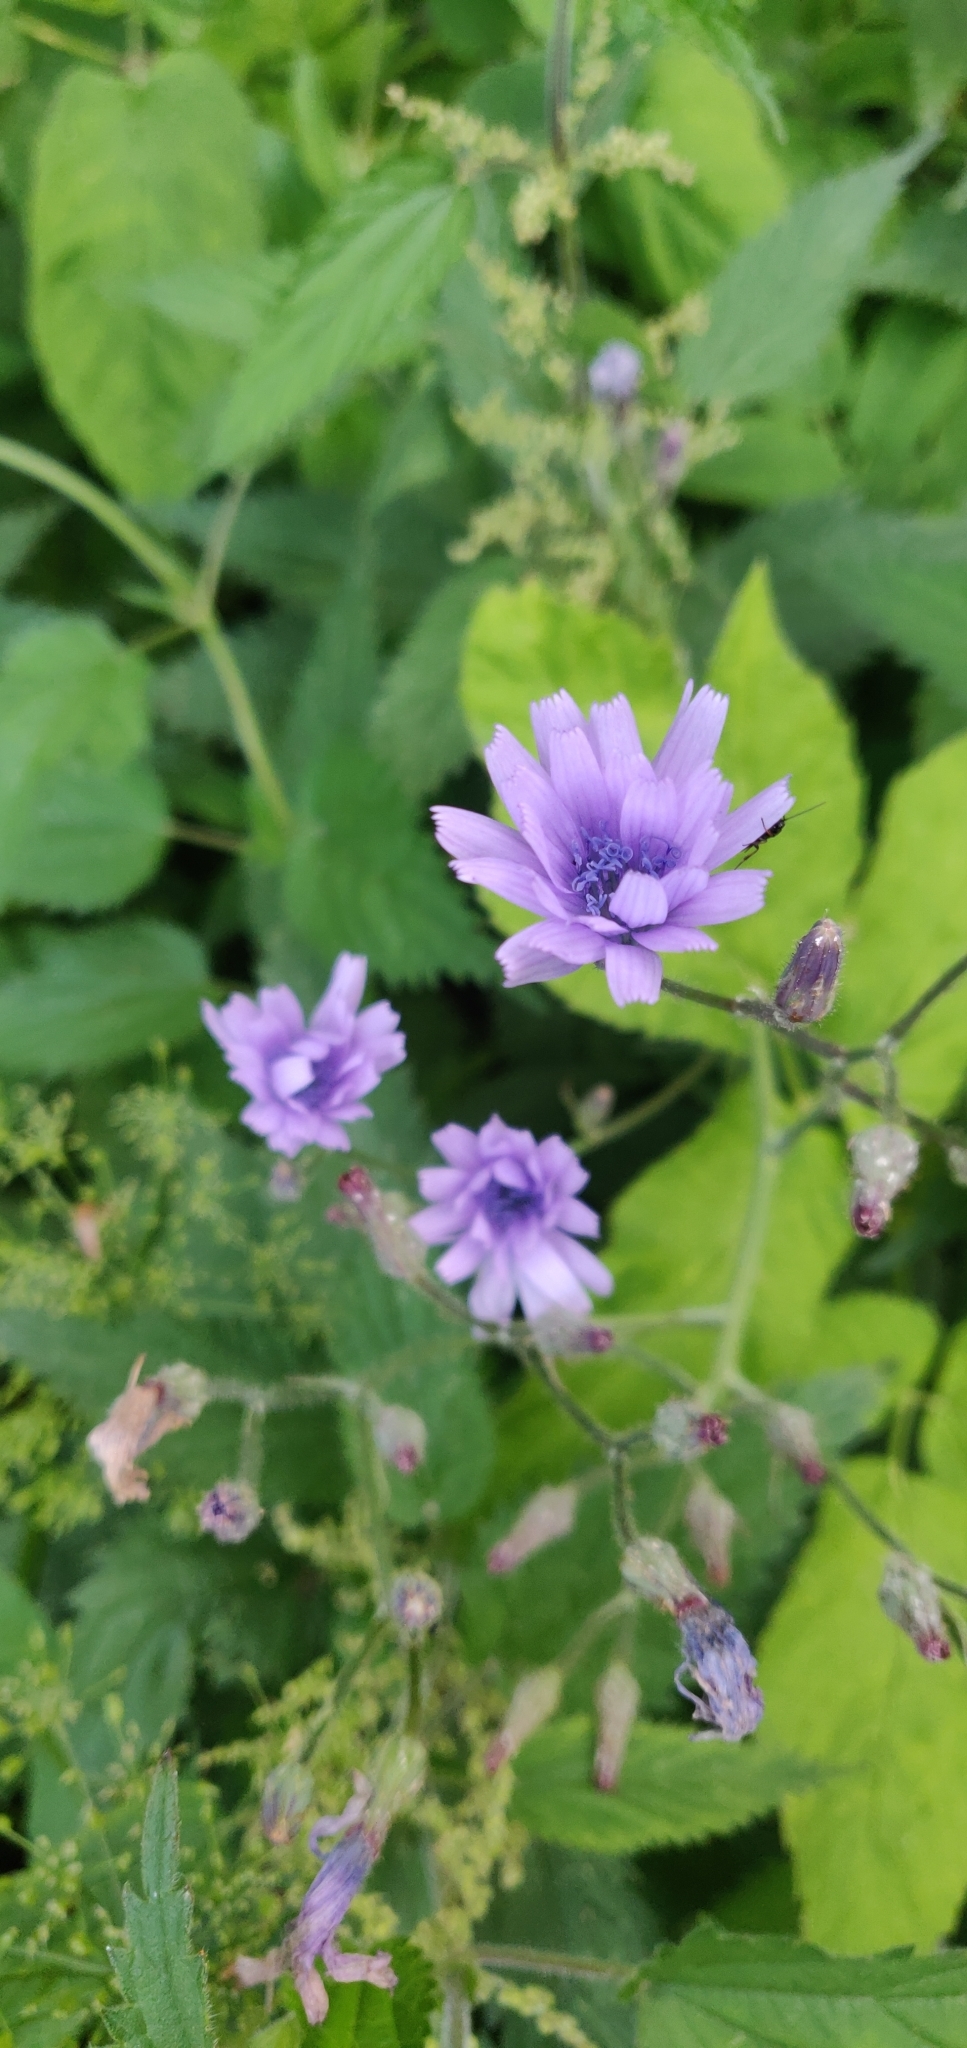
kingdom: Plantae
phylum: Tracheophyta
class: Magnoliopsida
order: Asterales
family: Asteraceae
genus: Lactuca
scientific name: Lactuca macrophylla
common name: Common blue-sow-thistle
